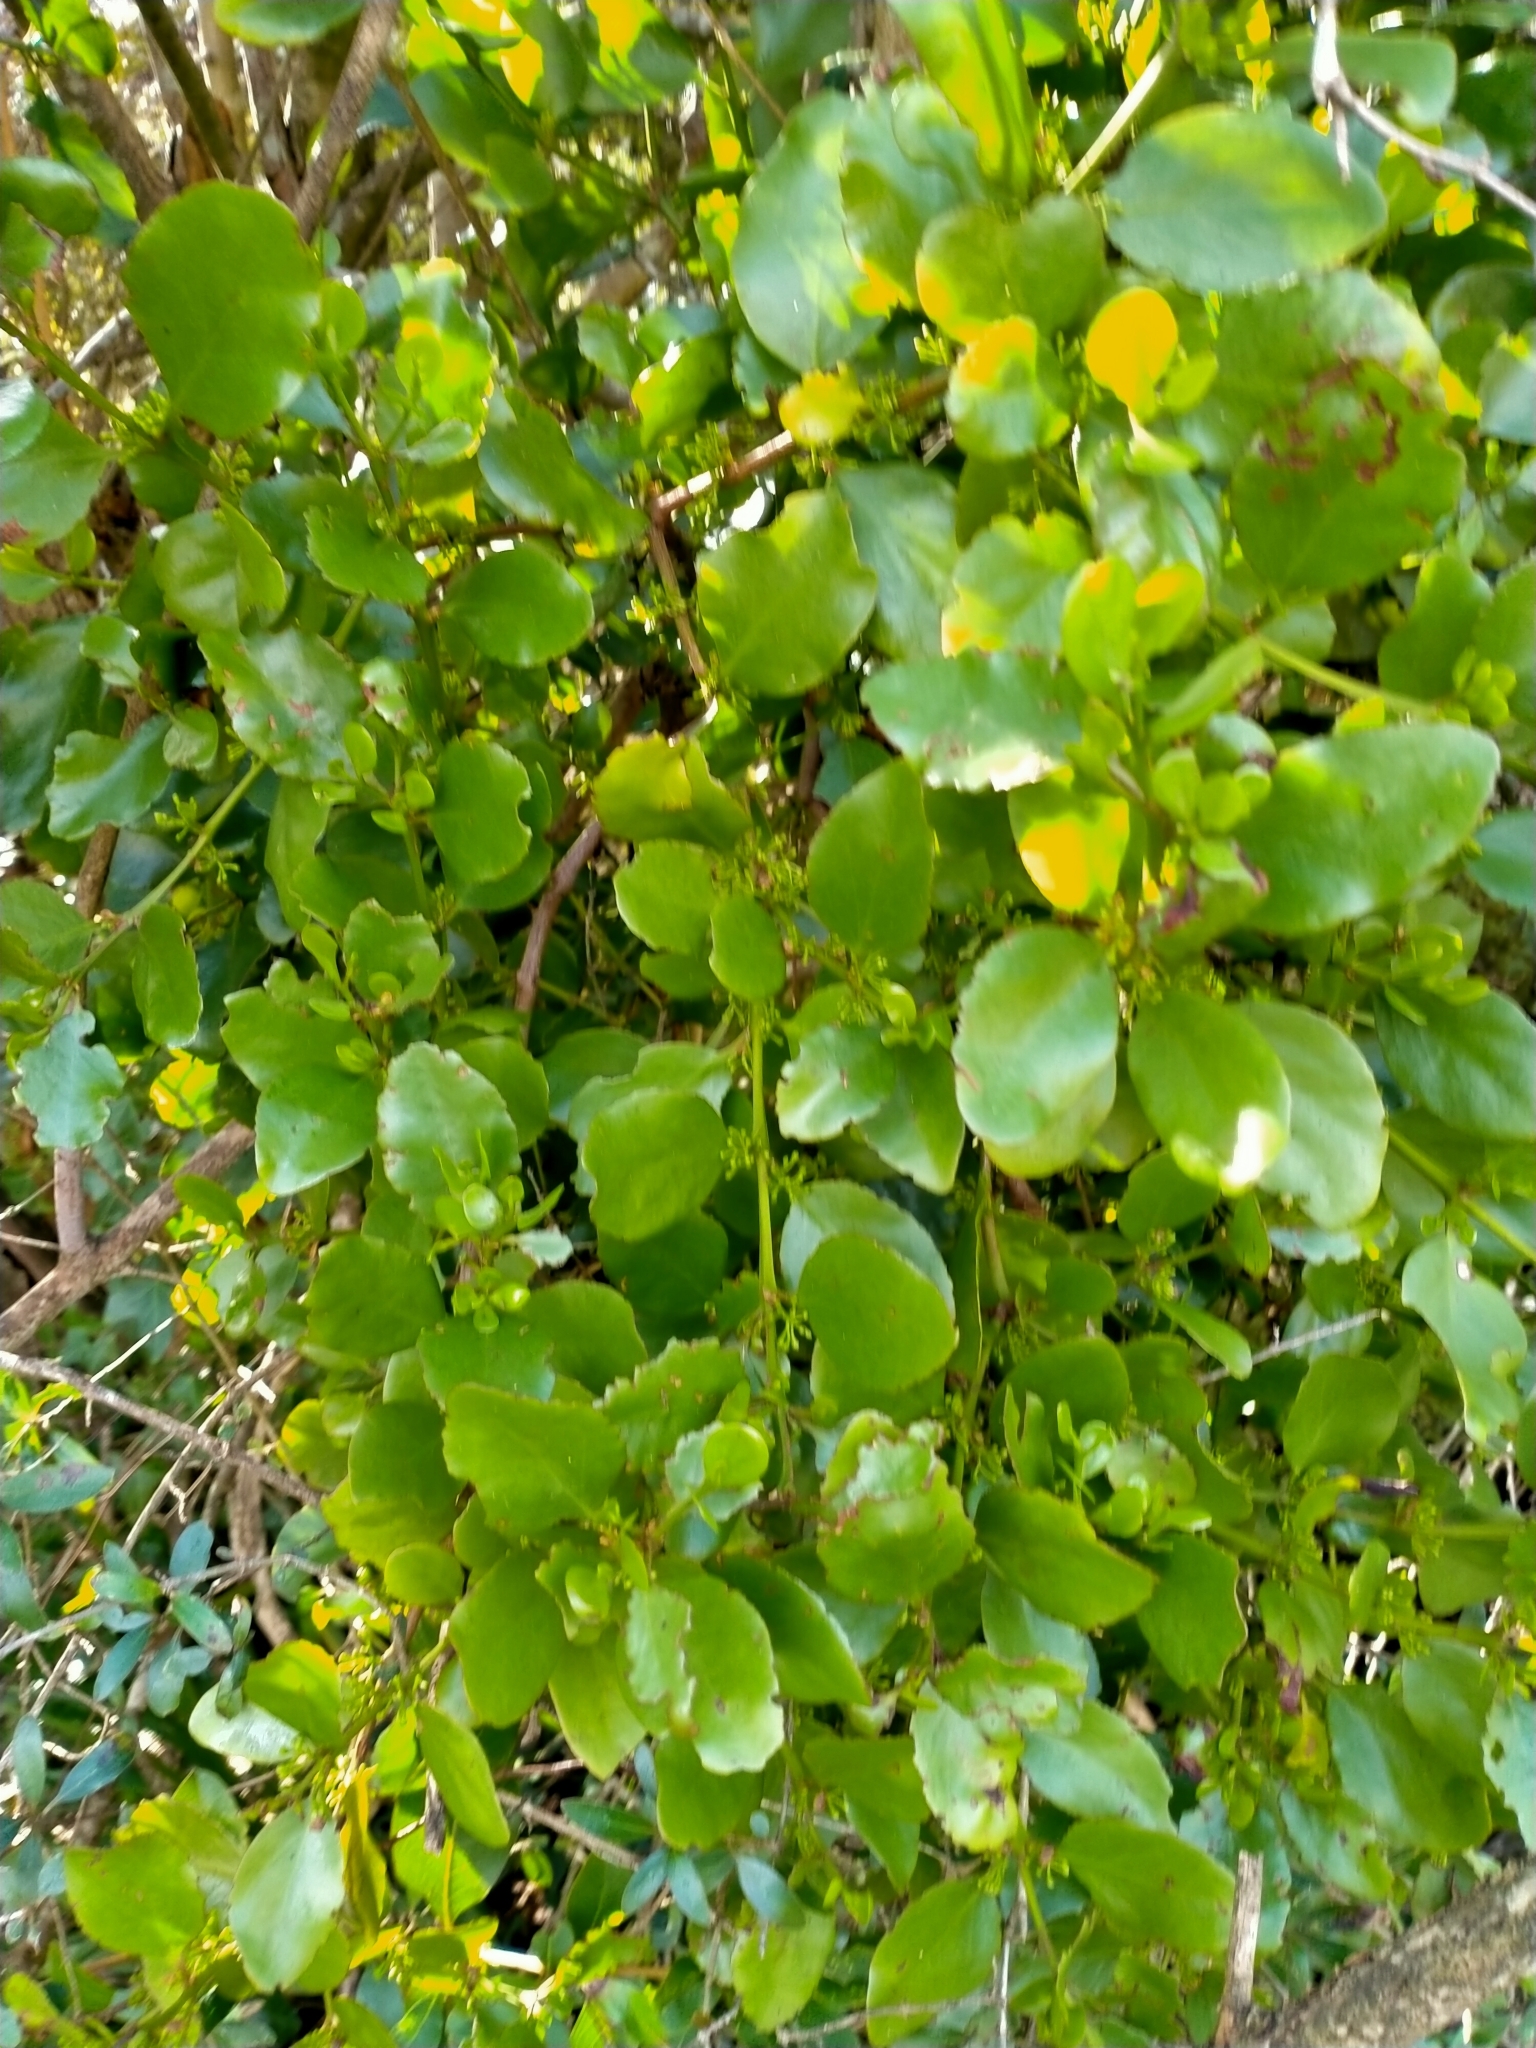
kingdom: Plantae
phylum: Tracheophyta
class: Magnoliopsida
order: Santalales
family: Loranthaceae
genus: Ileostylus
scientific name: Ileostylus micranthus
